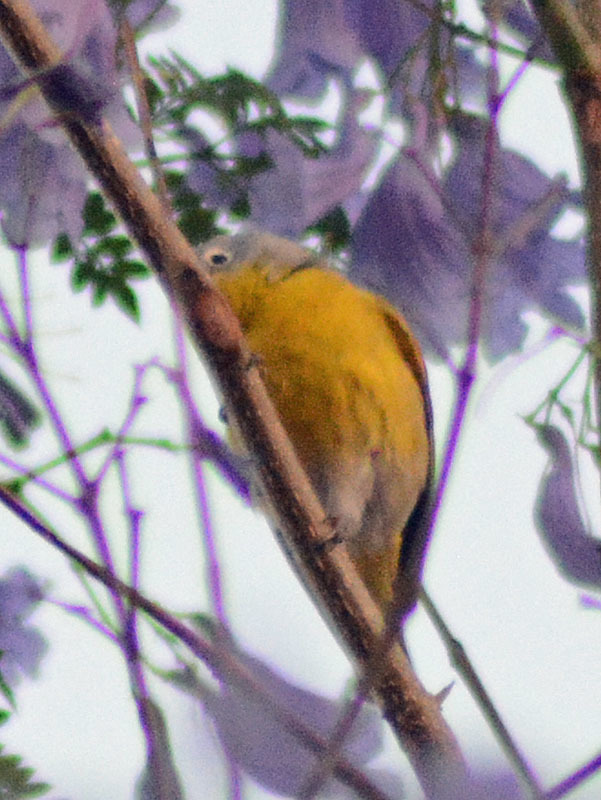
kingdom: Animalia
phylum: Chordata
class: Aves
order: Passeriformes
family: Parulidae
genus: Leiothlypis
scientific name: Leiothlypis ruficapilla
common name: Nashville warbler
